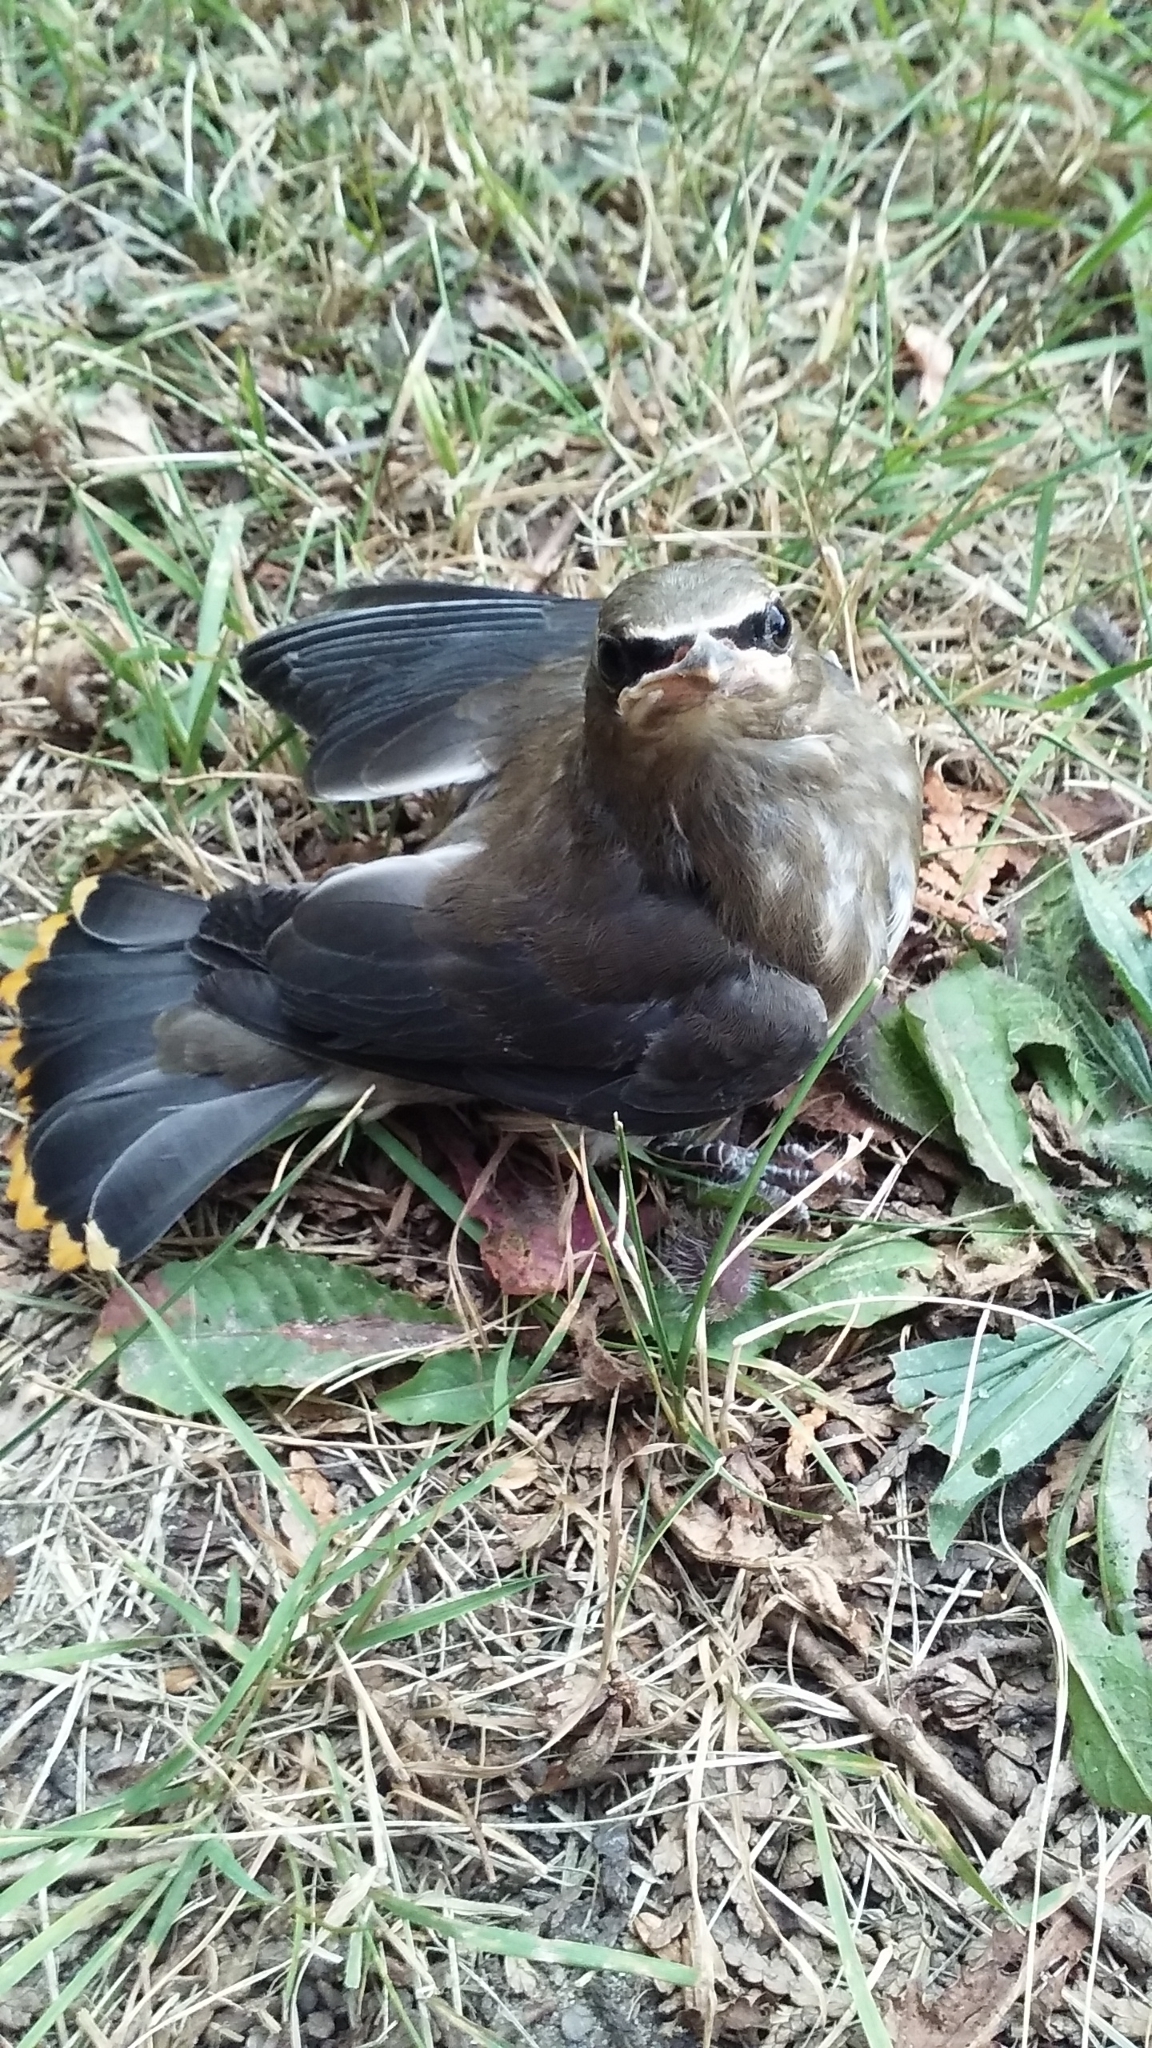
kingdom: Animalia
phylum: Chordata
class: Aves
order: Passeriformes
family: Bombycillidae
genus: Bombycilla
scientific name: Bombycilla cedrorum
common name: Cedar waxwing
